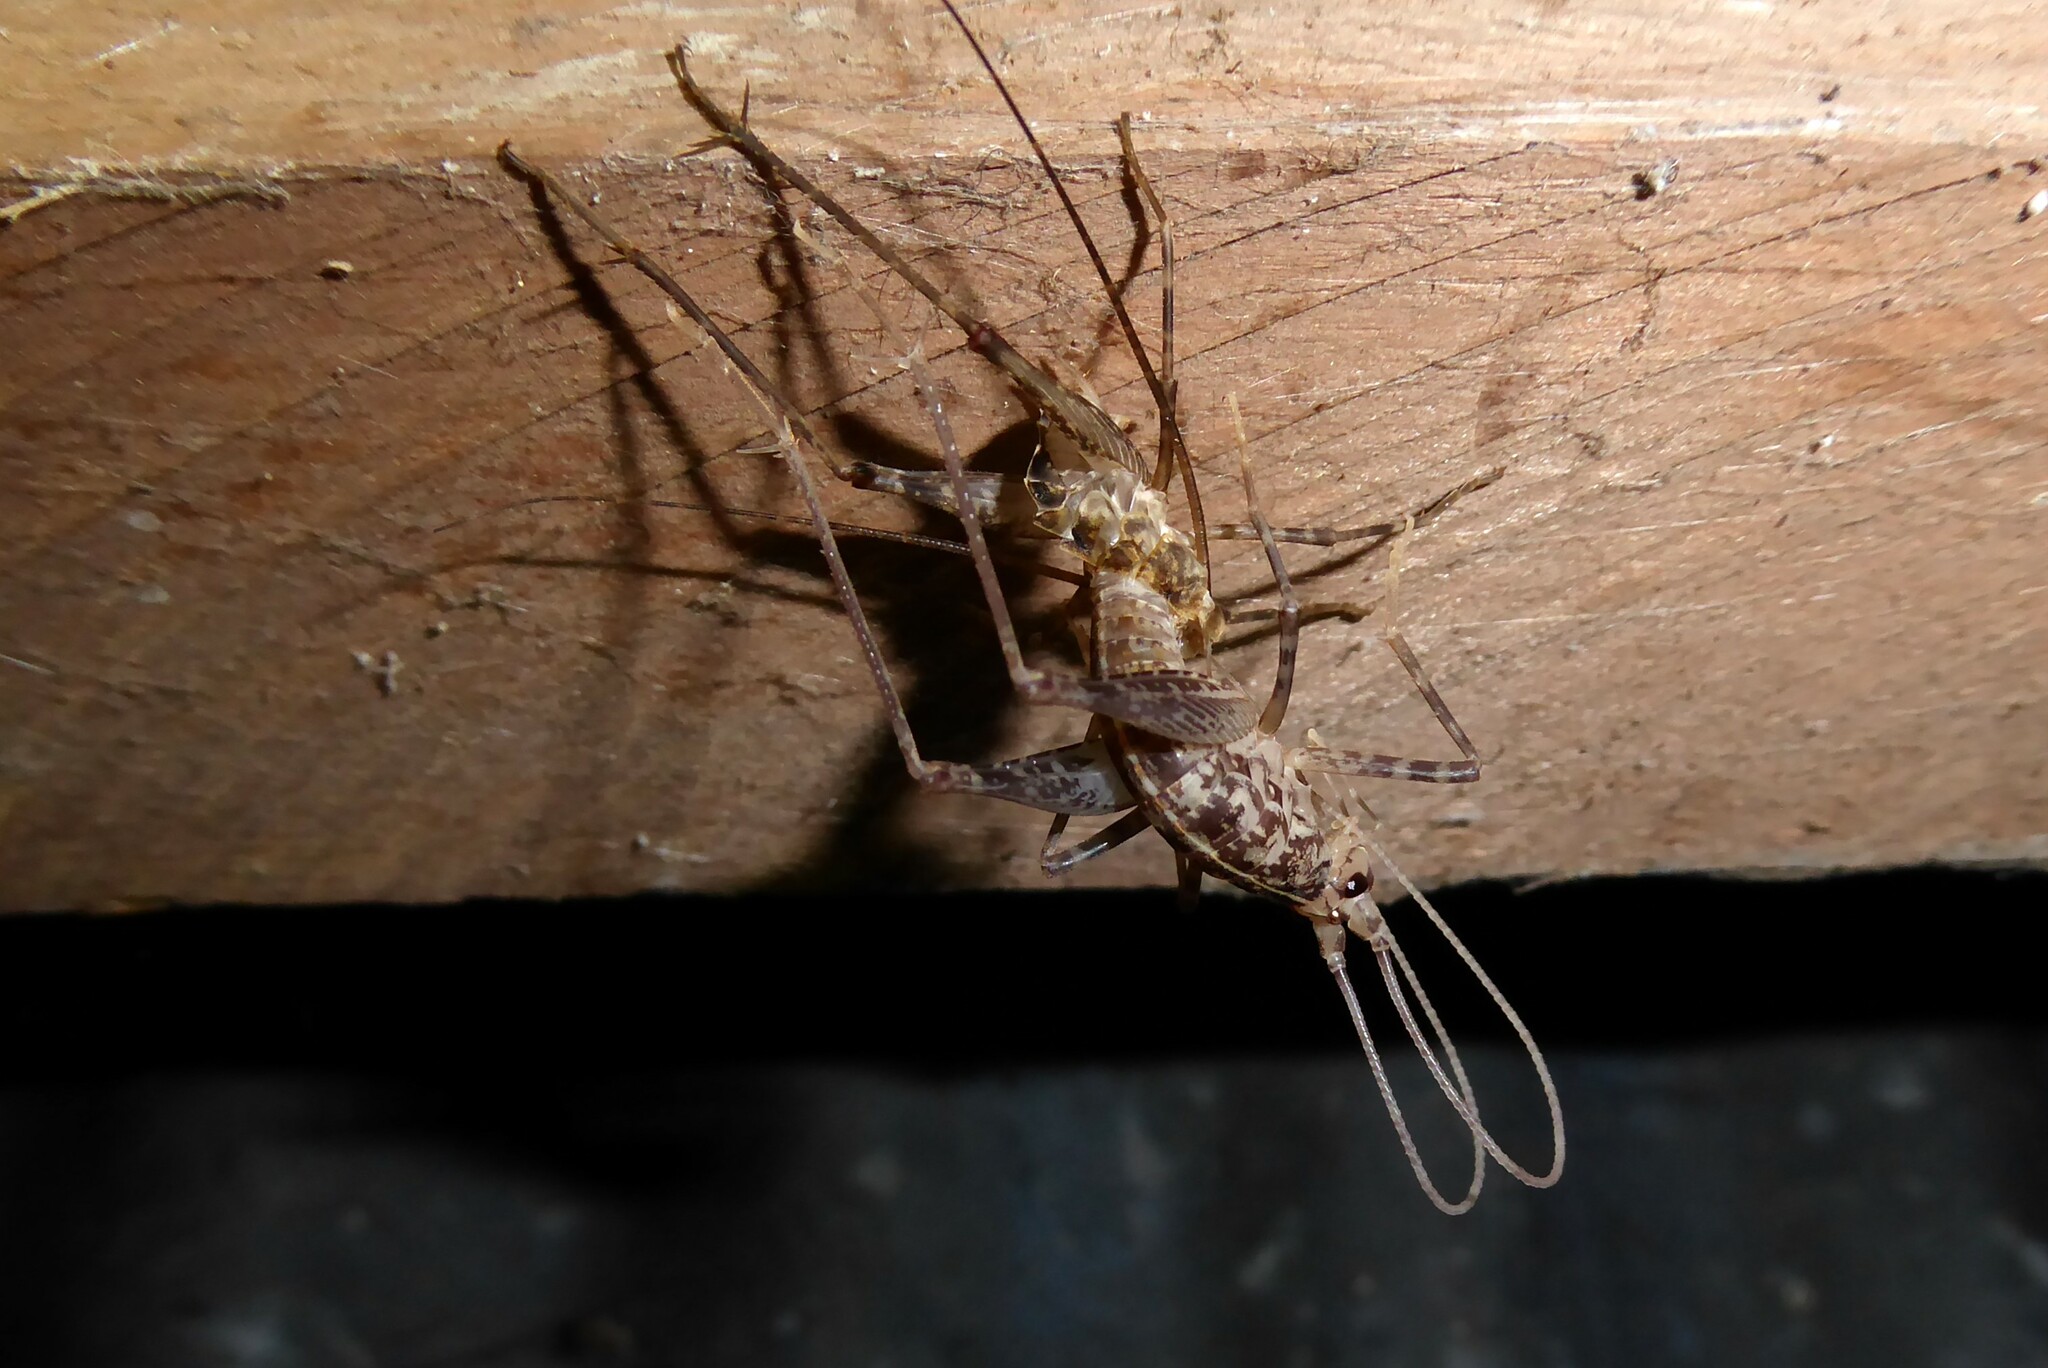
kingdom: Animalia
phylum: Arthropoda
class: Insecta
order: Orthoptera
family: Rhaphidophoridae
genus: Pleioplectron
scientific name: Pleioplectron simplex
